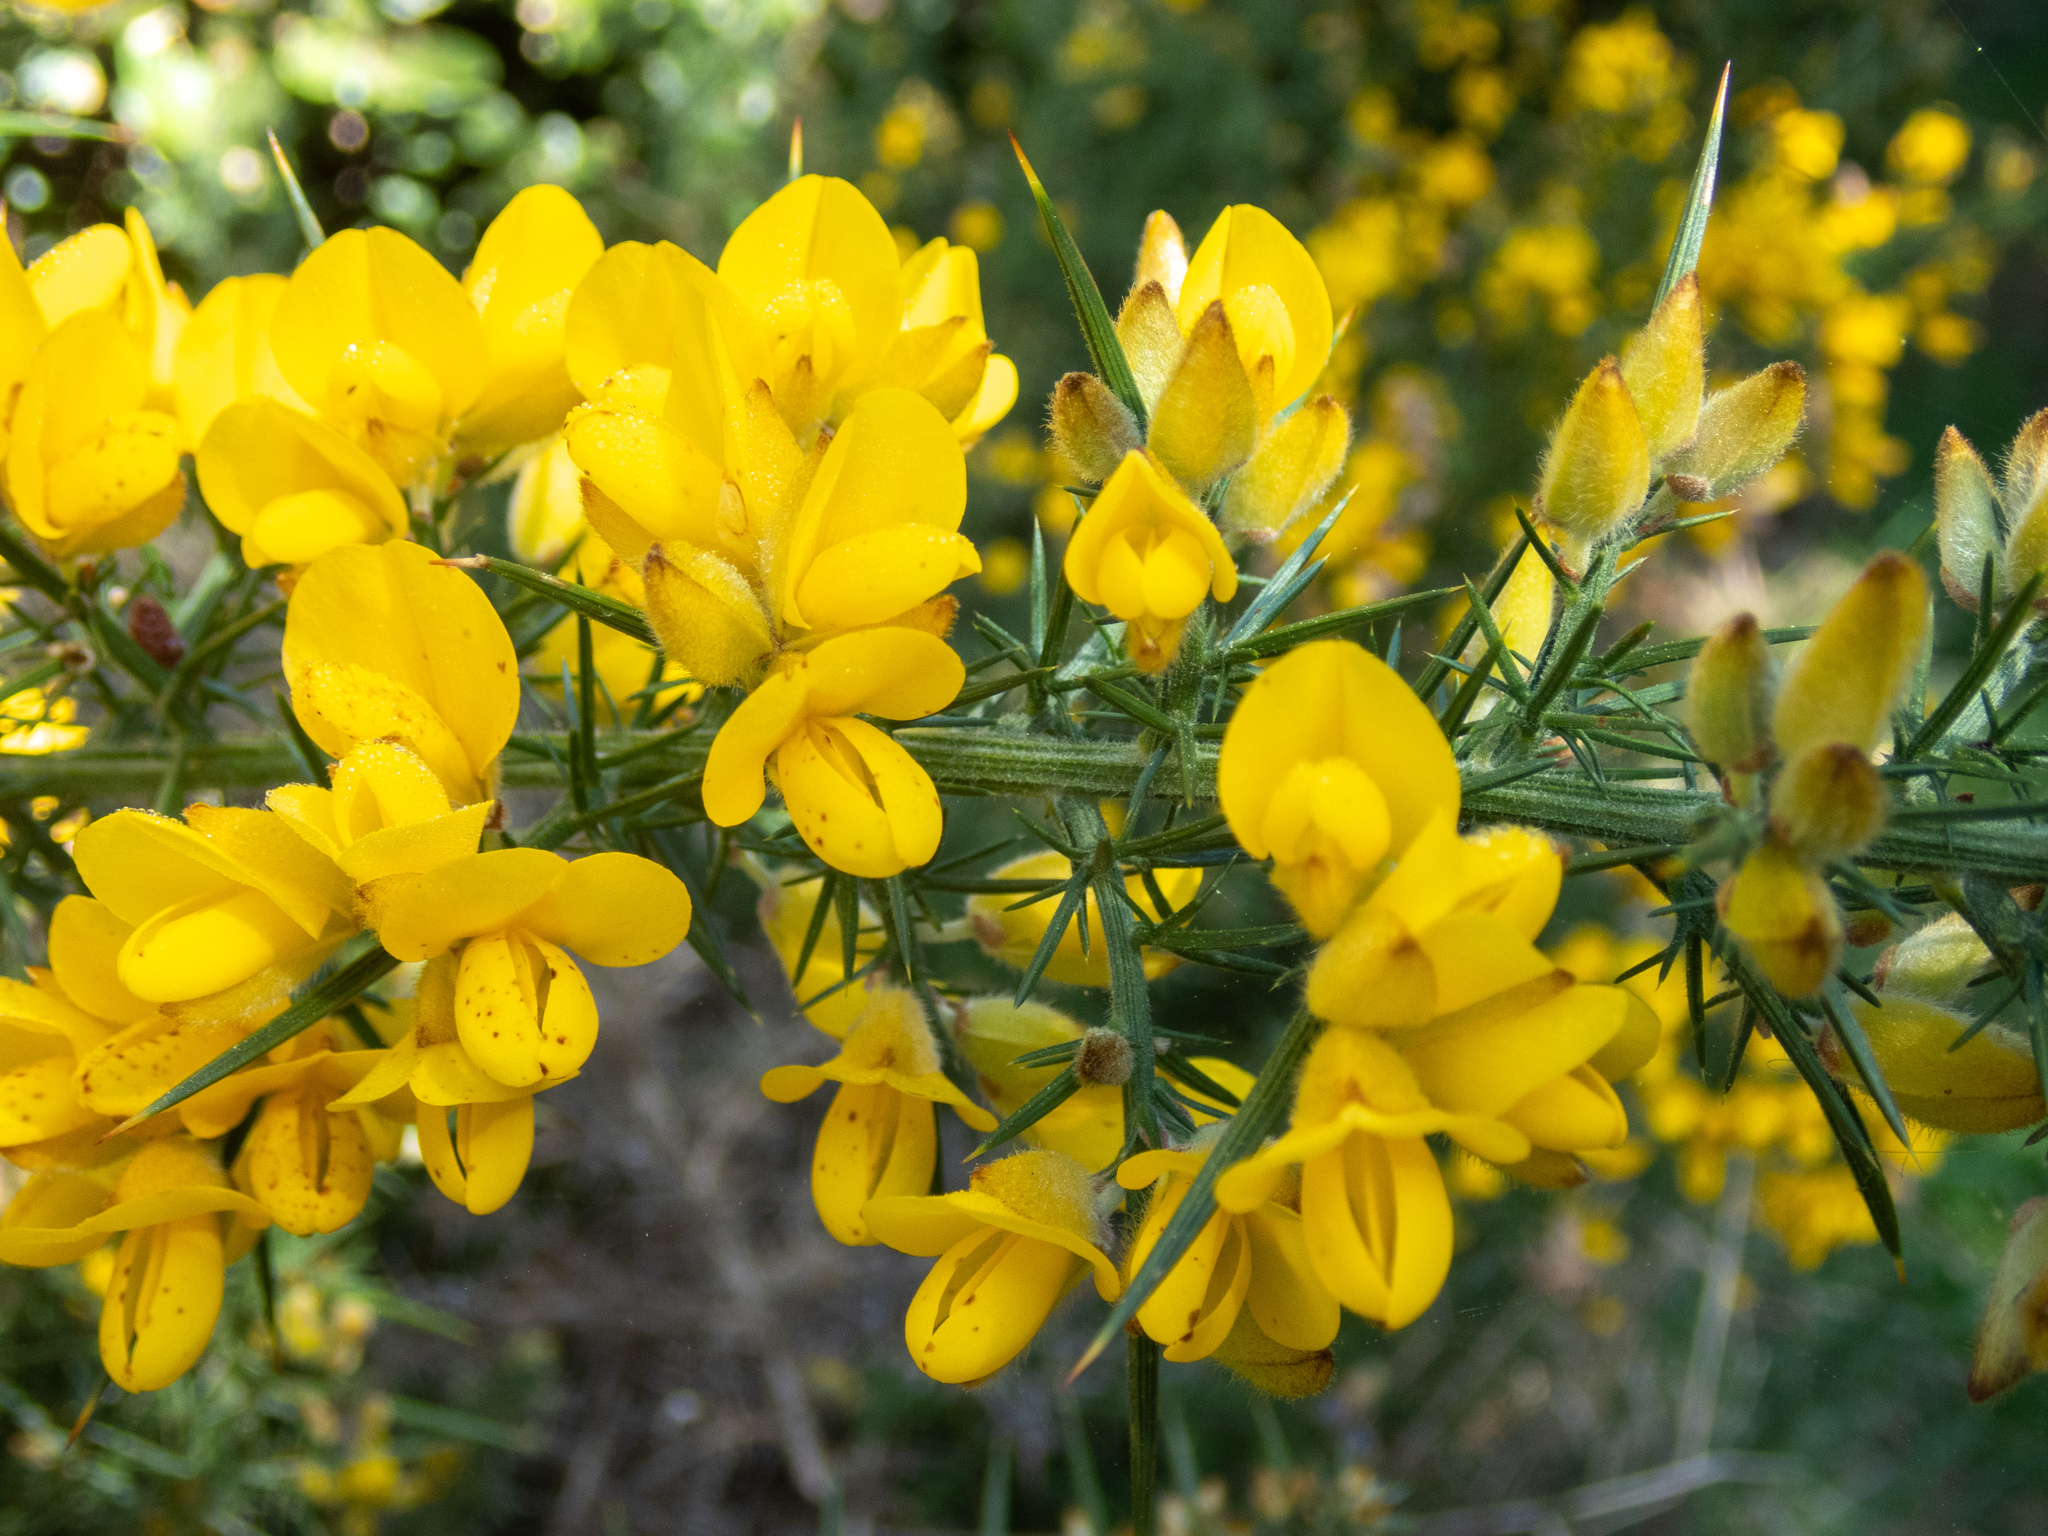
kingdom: Plantae
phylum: Tracheophyta
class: Magnoliopsida
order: Fabales
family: Fabaceae
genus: Ulex
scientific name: Ulex europaeus
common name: Common gorse
